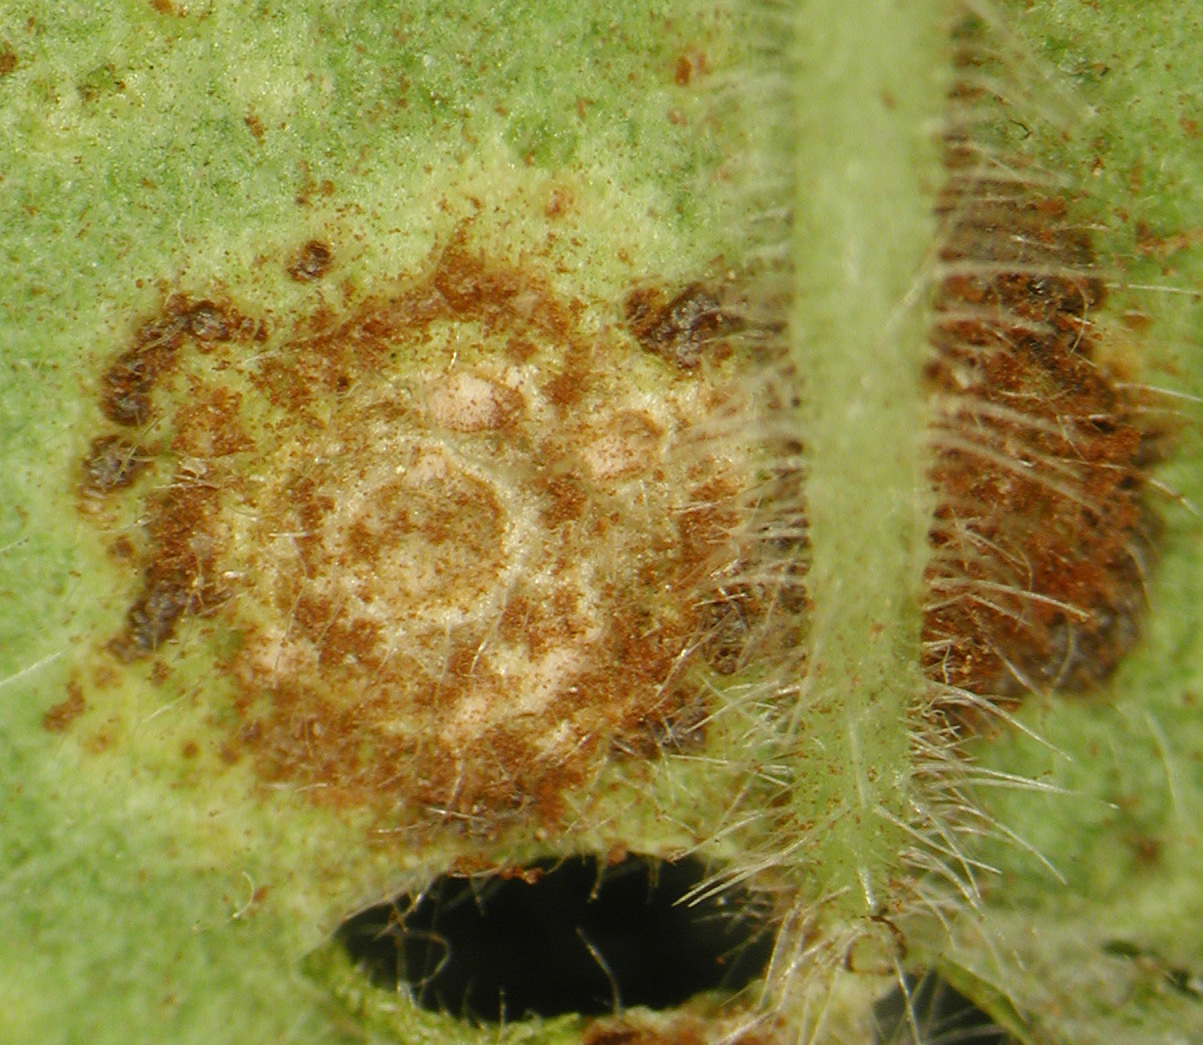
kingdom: Fungi
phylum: Basidiomycota
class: Pucciniomycetes
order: Pucciniales
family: Pucciniaceae
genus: Puccinia
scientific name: Puccinia pelargonii-zonalis
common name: Rust of pelargonium
